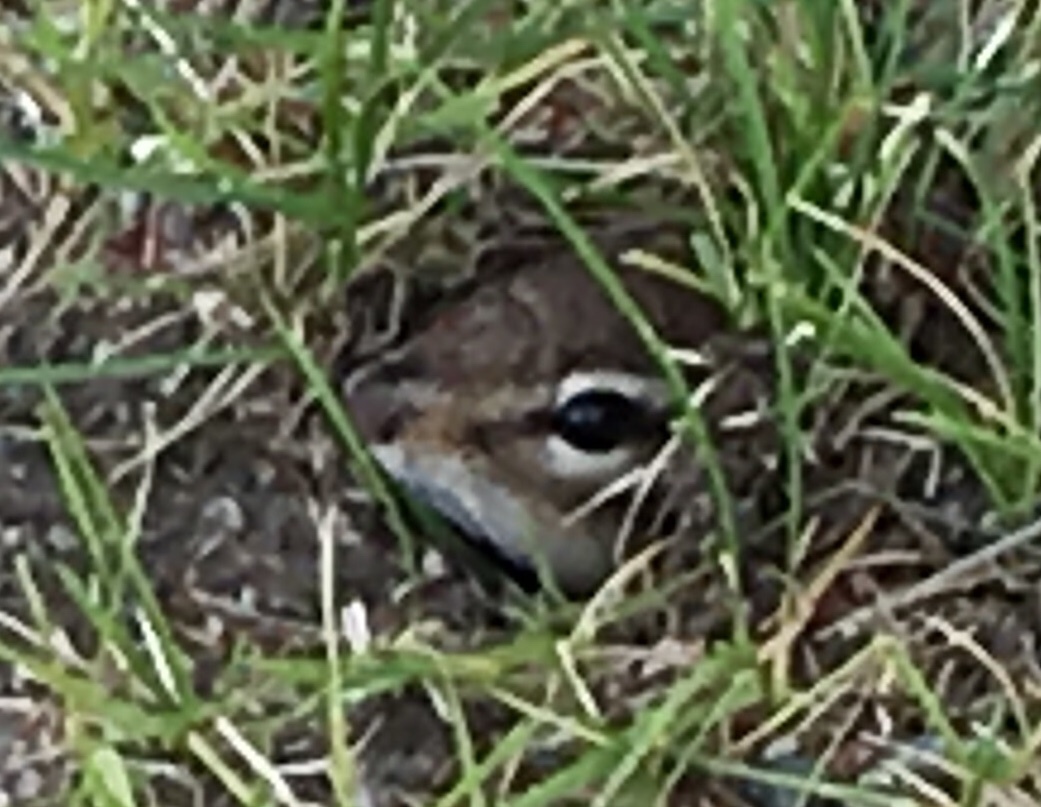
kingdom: Animalia
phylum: Chordata
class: Mammalia
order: Rodentia
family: Sciuridae
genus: Tamias
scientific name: Tamias striatus
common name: Eastern chipmunk
